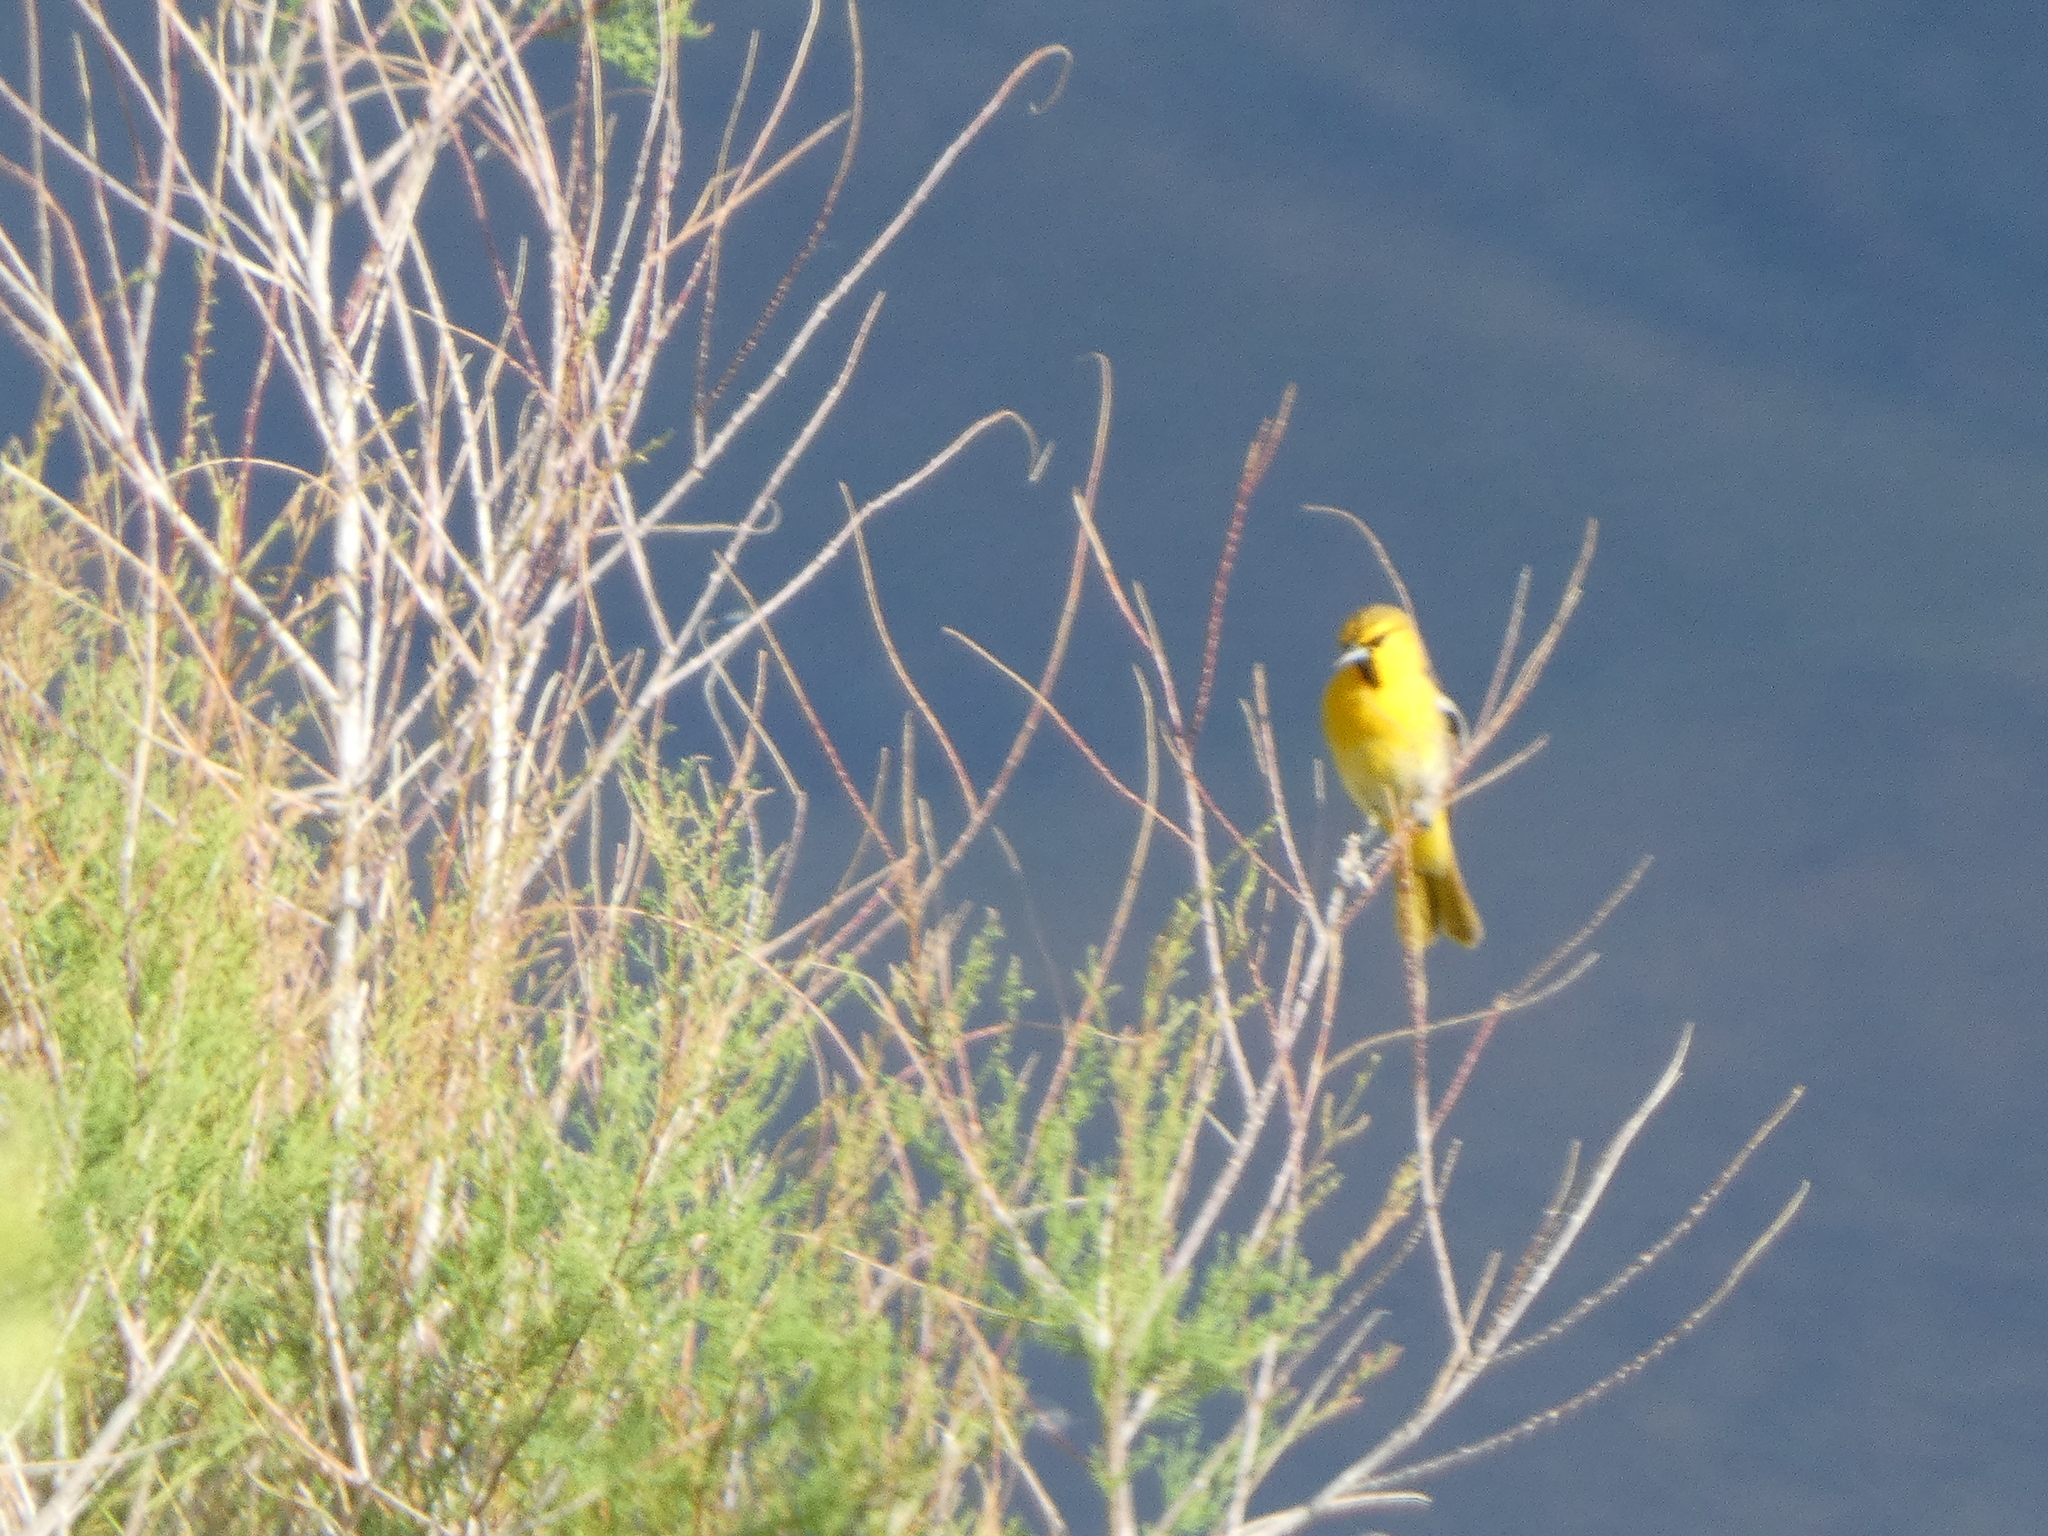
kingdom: Animalia
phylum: Chordata
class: Aves
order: Passeriformes
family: Icteridae
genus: Icterus
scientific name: Icterus bullockii
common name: Bullock's oriole
